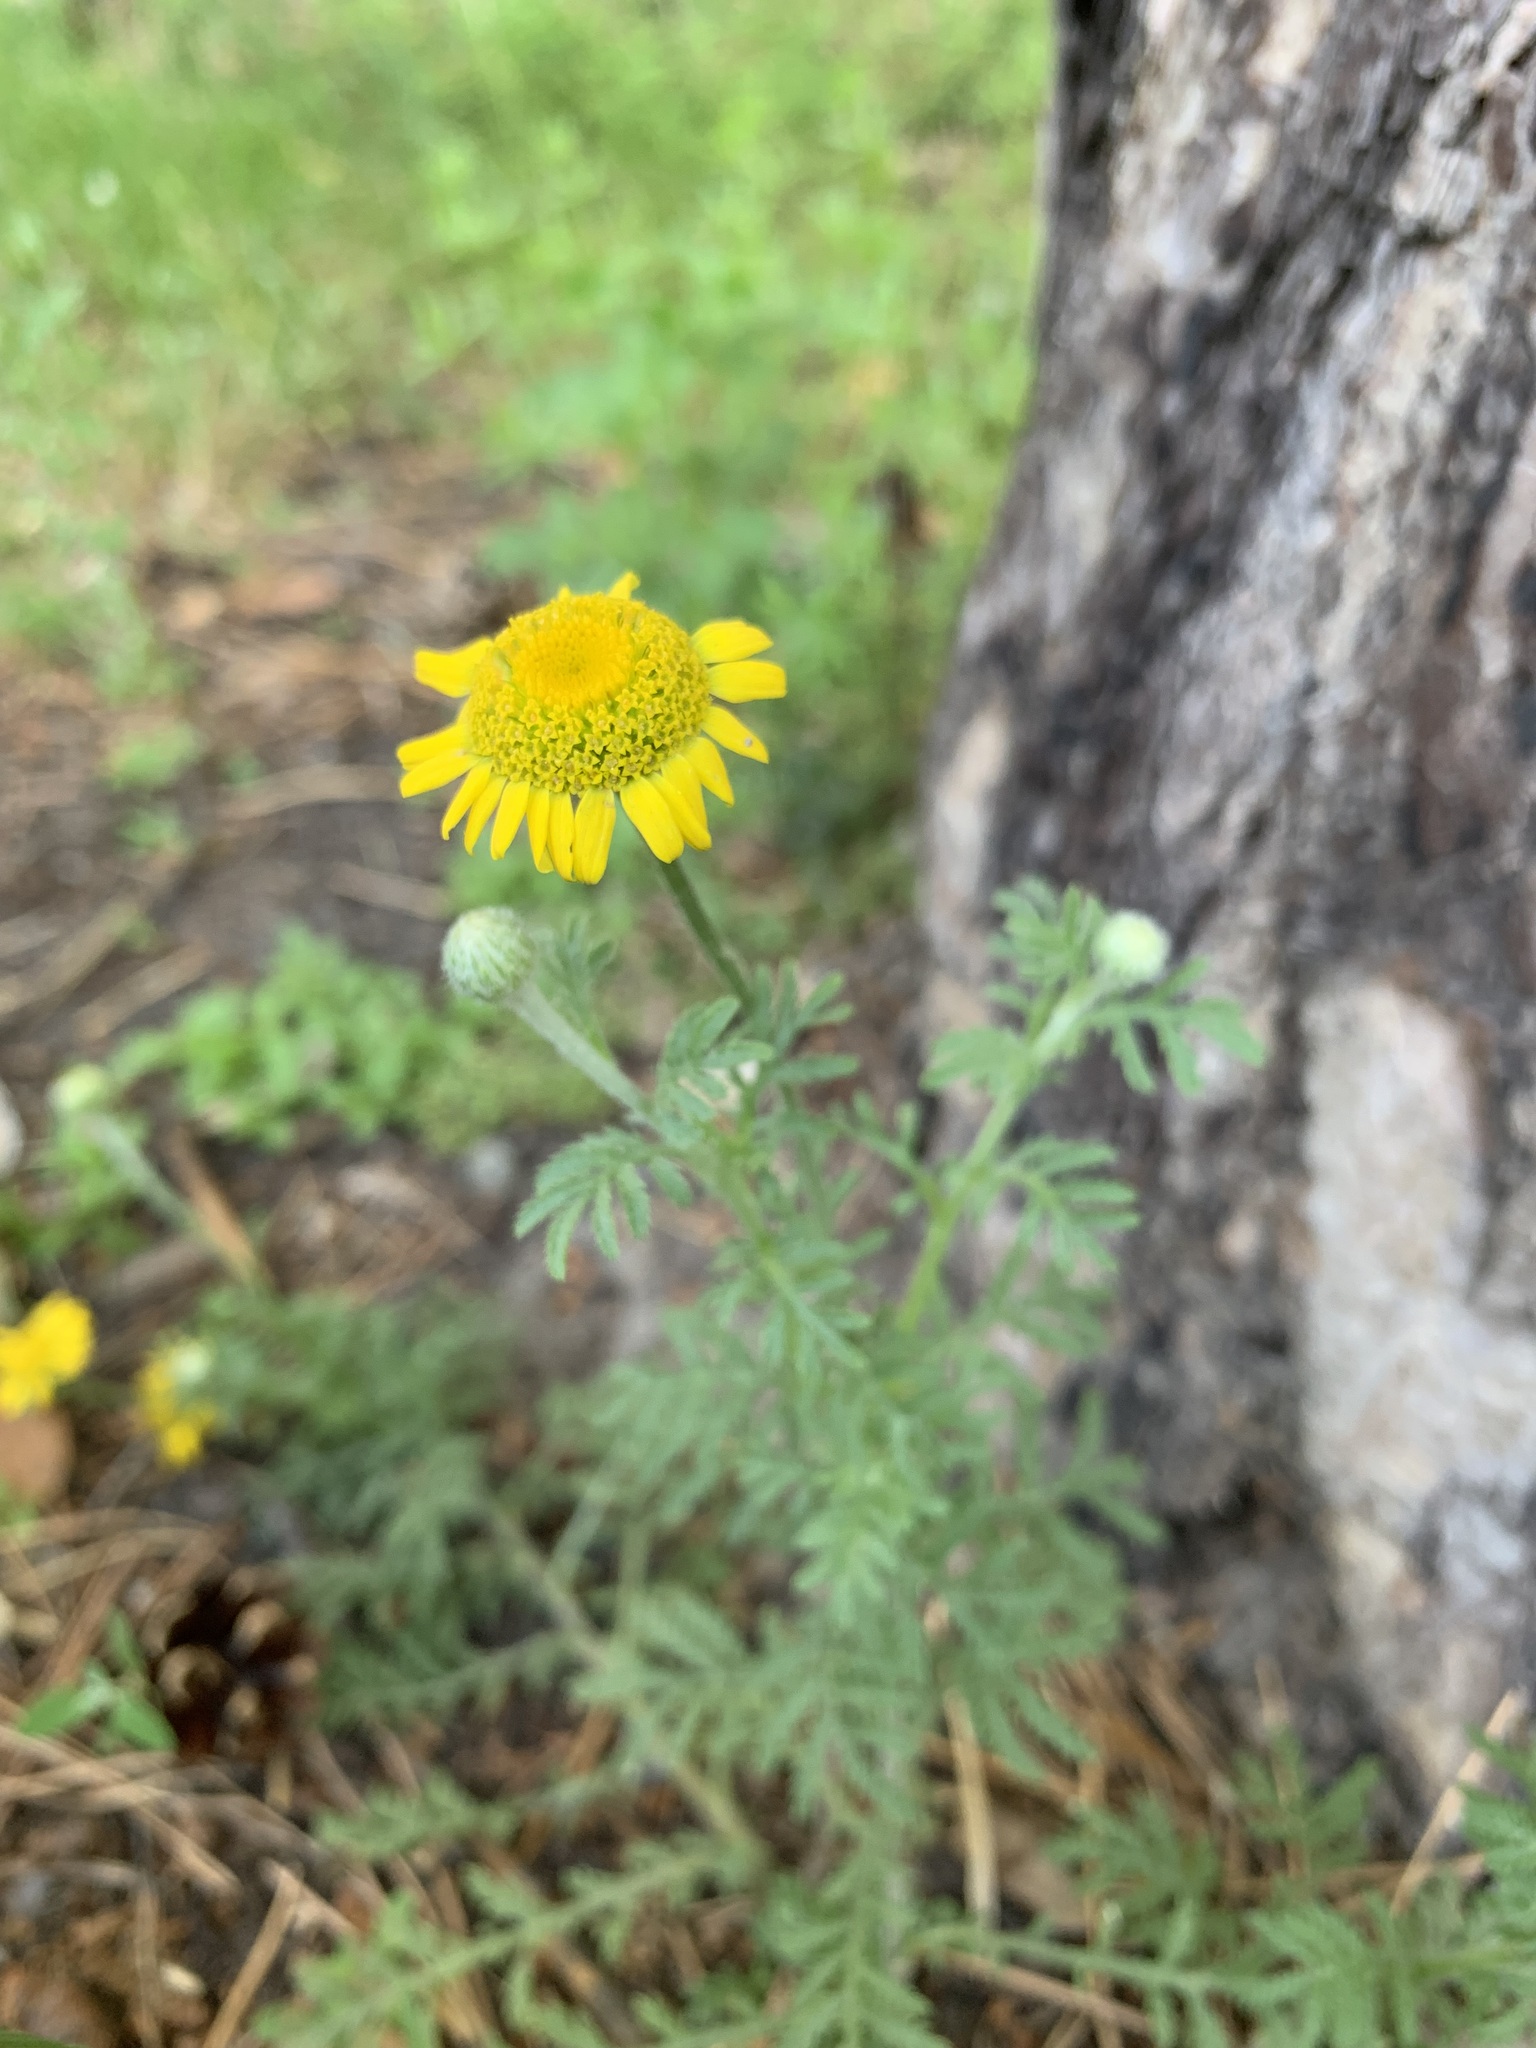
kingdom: Plantae
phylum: Tracheophyta
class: Magnoliopsida
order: Asterales
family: Asteraceae
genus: Cota
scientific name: Cota tinctoria
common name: Golden chamomile
